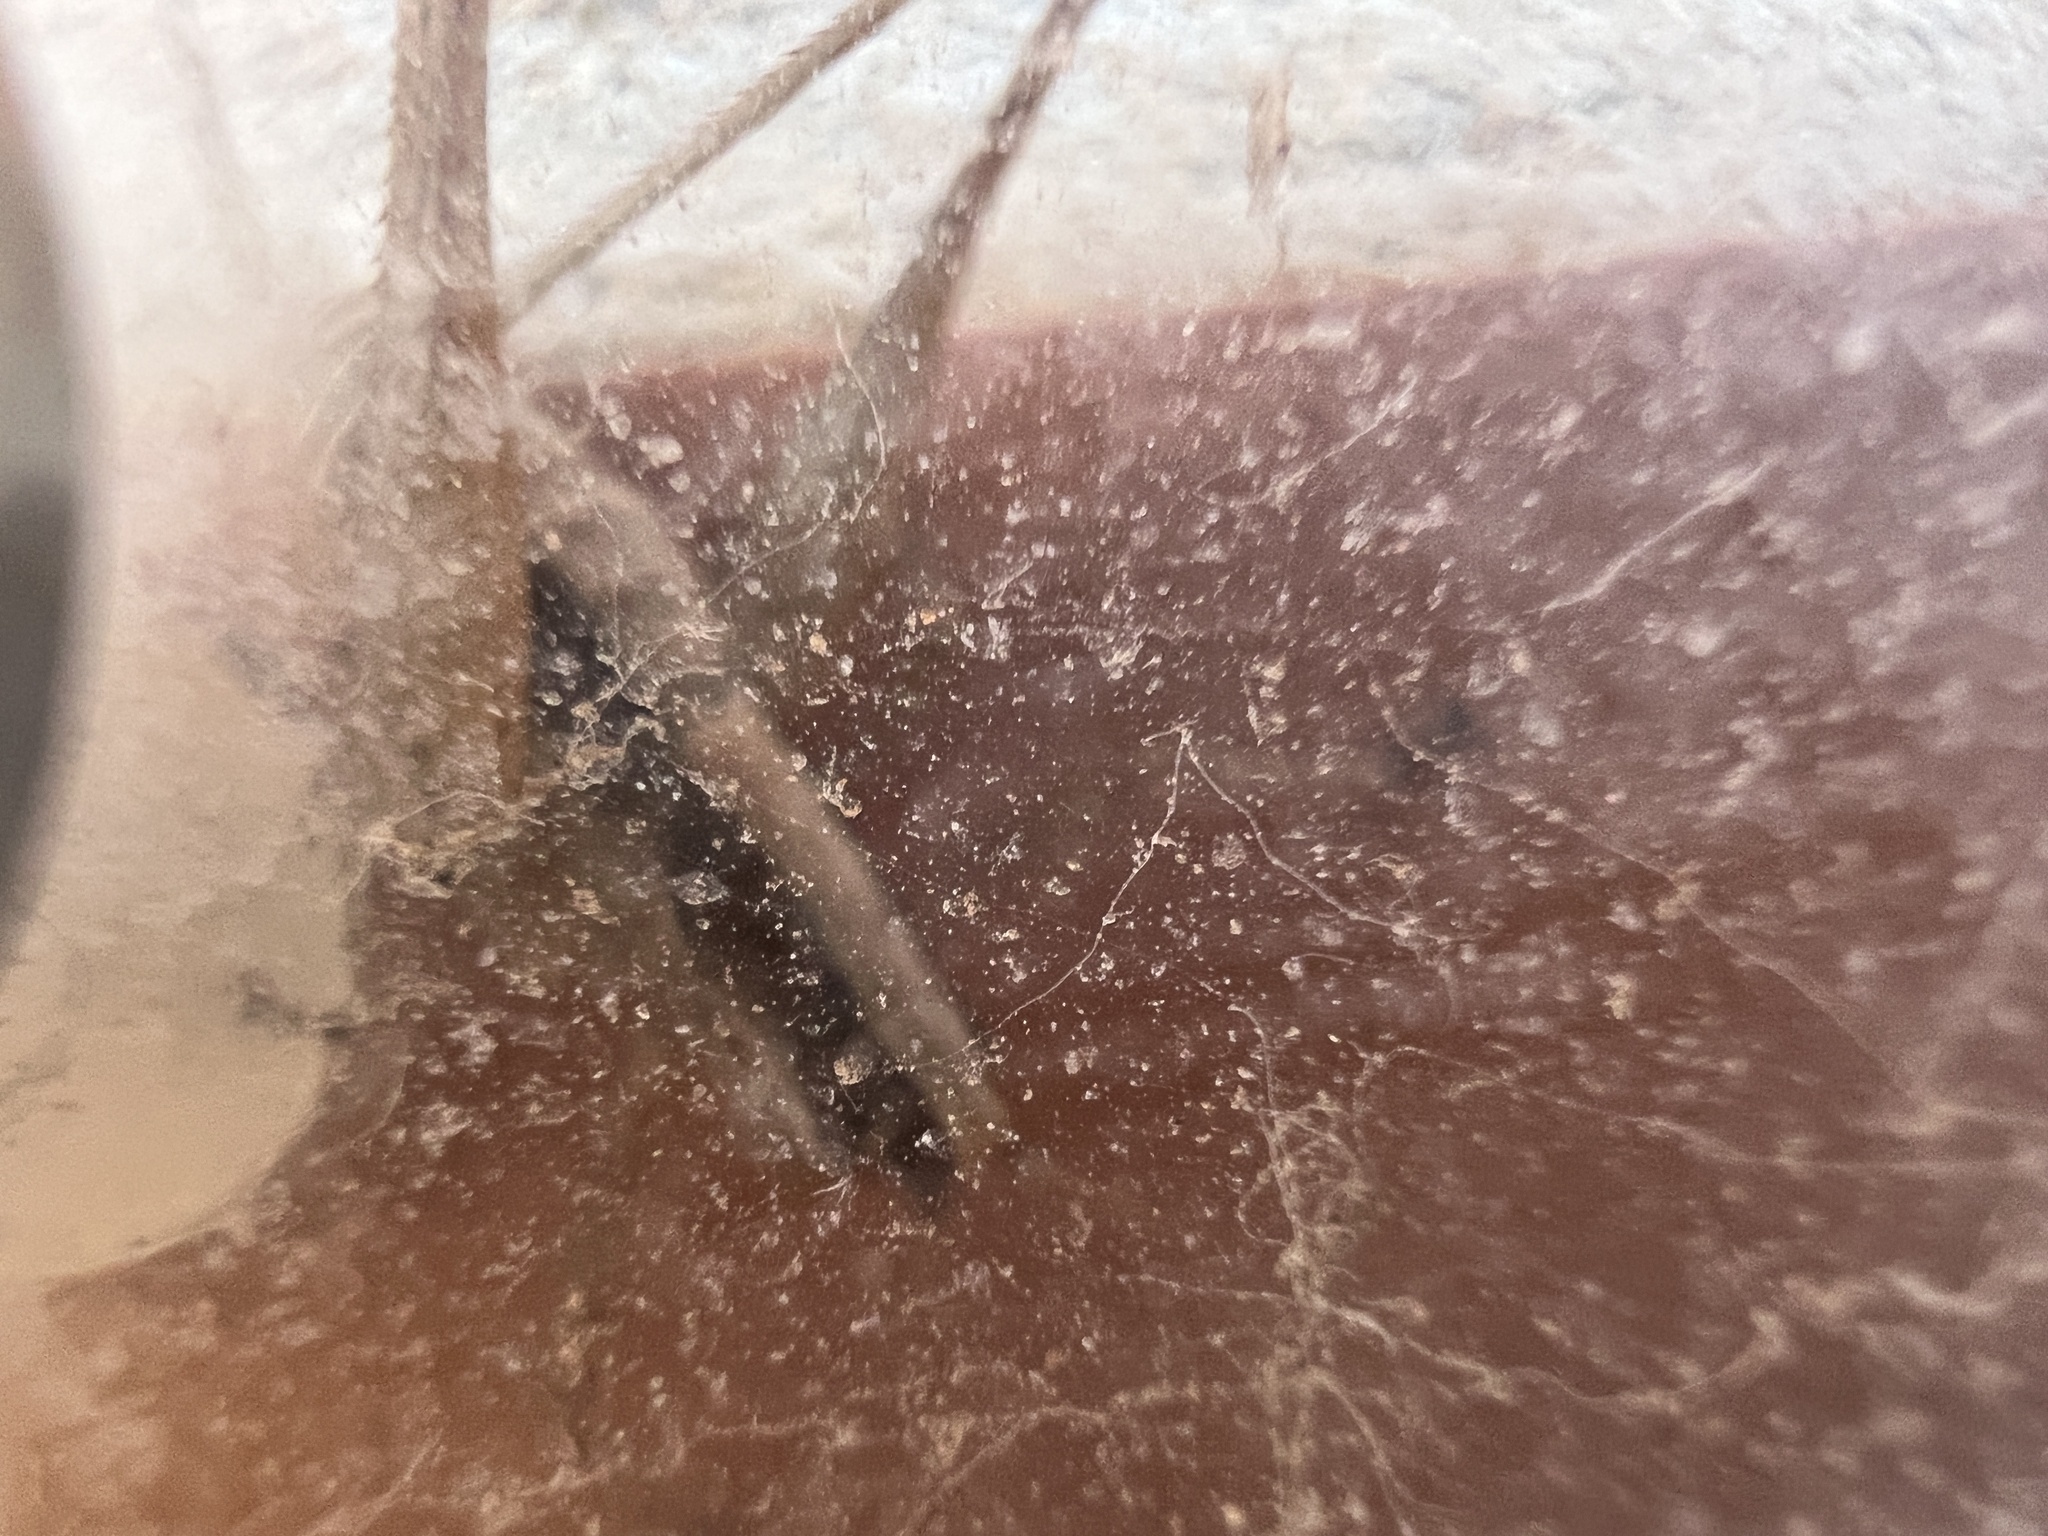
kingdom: Animalia
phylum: Arthropoda
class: Insecta
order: Orthoptera
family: Tettigoniidae
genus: Yersinella
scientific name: Yersinella raymondii
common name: Raymond's bush-cricket
